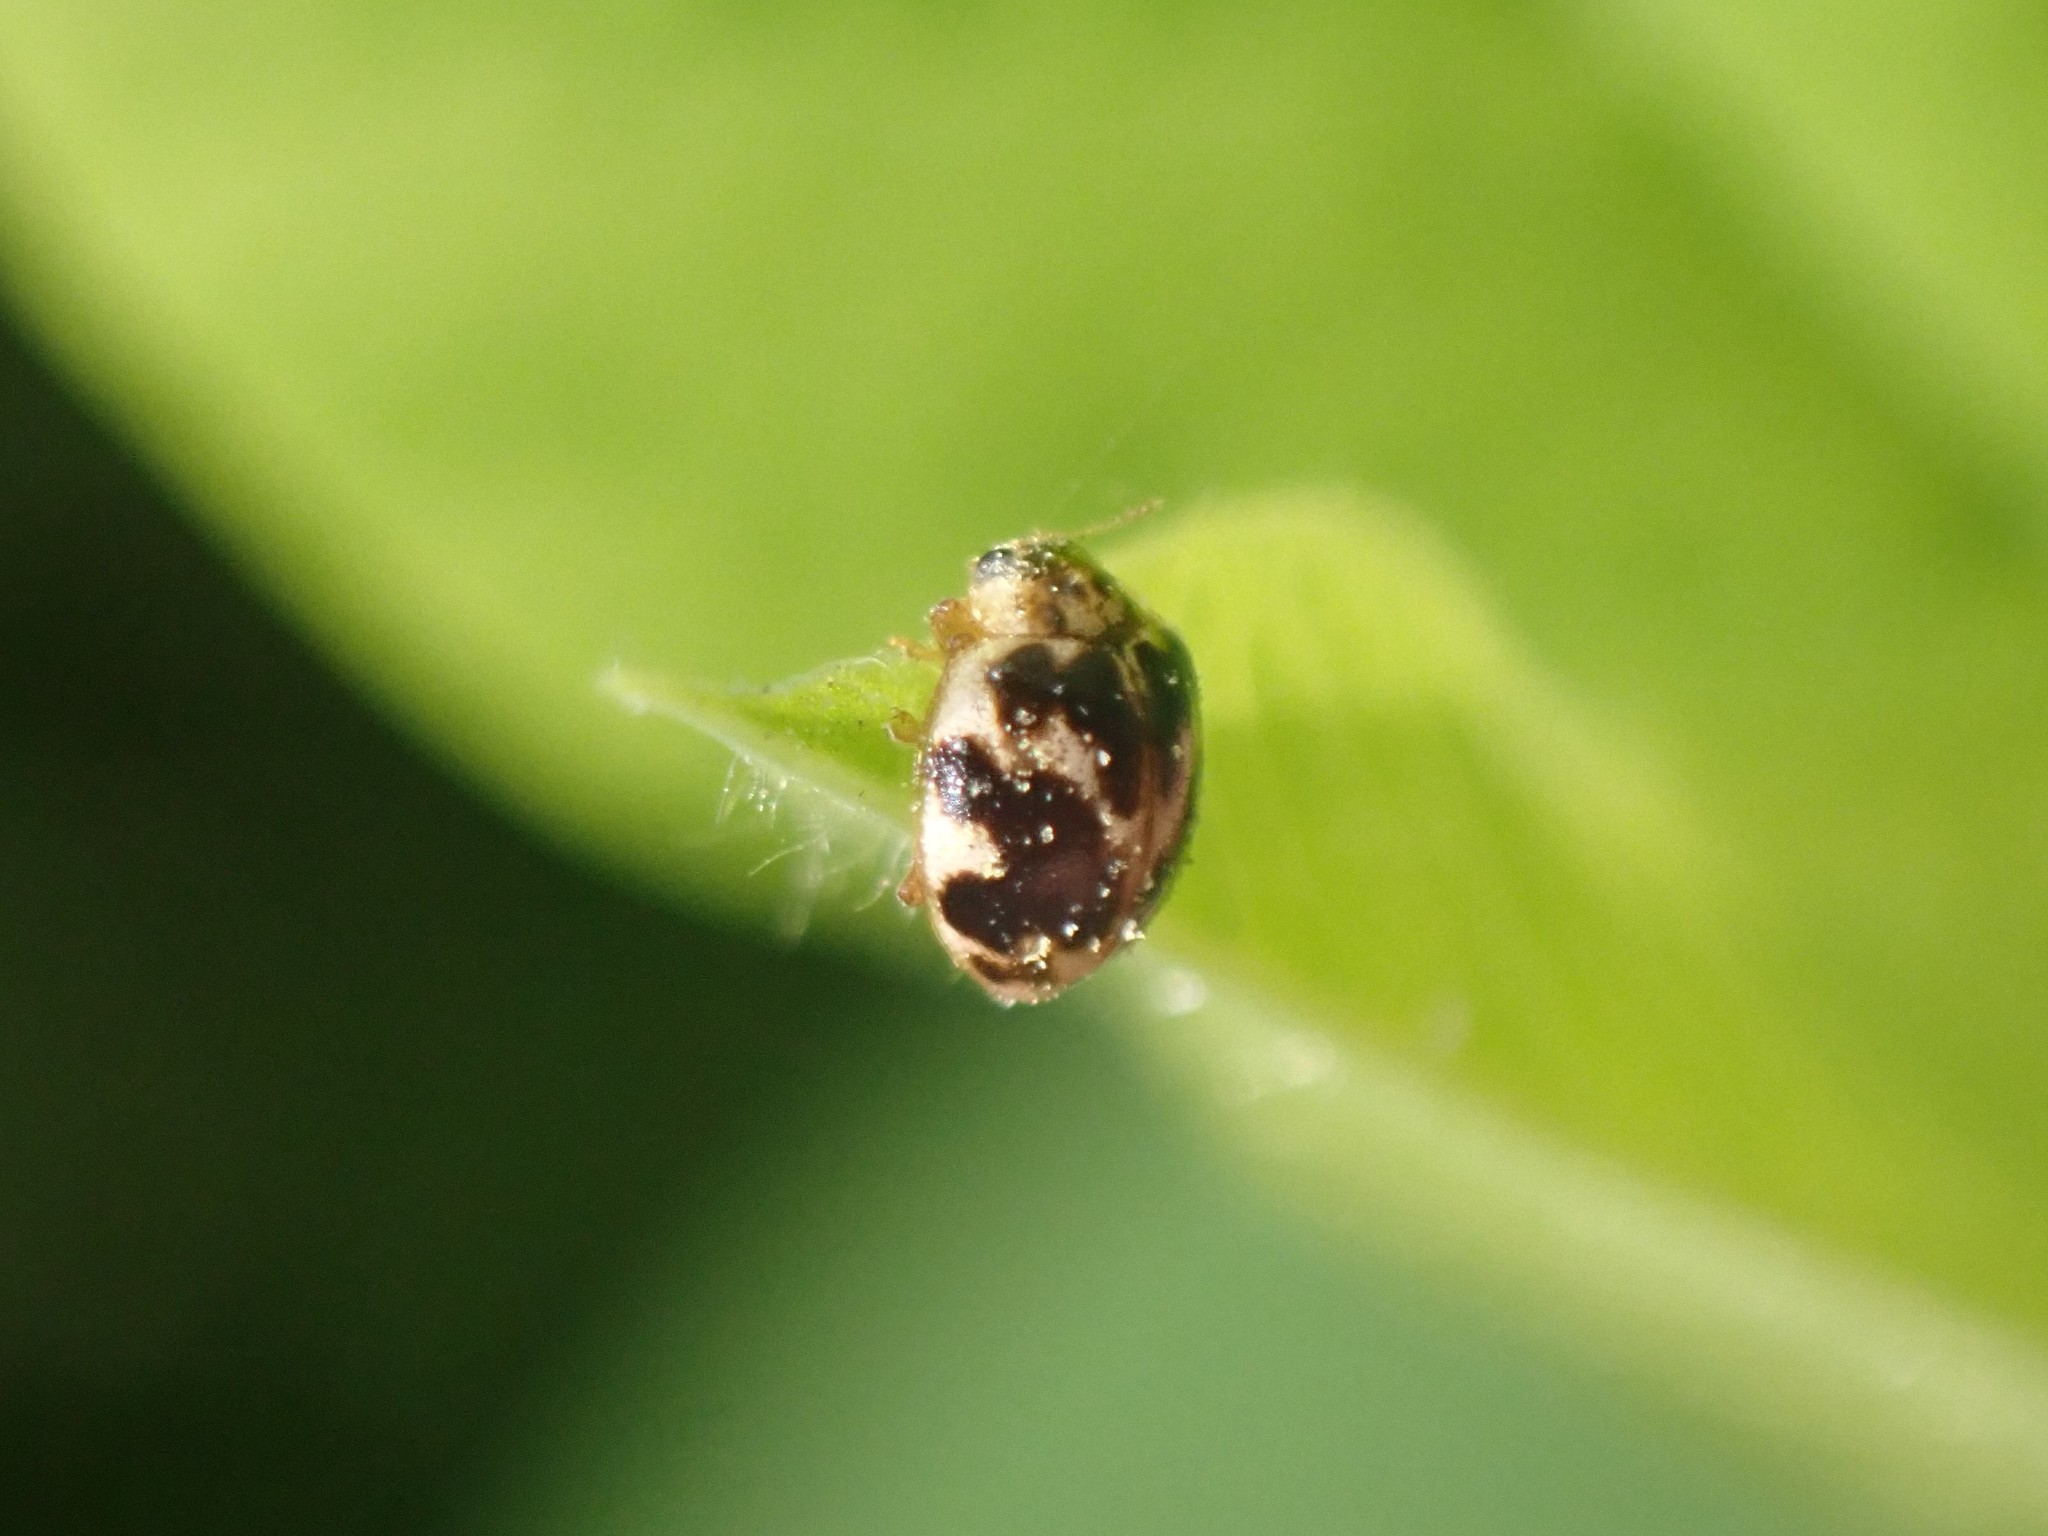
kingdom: Animalia
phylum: Arthropoda
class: Insecta
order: Coleoptera
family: Coccinellidae
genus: Psyllobora
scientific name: Psyllobora vigintimaculata
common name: Ladybird beetle
